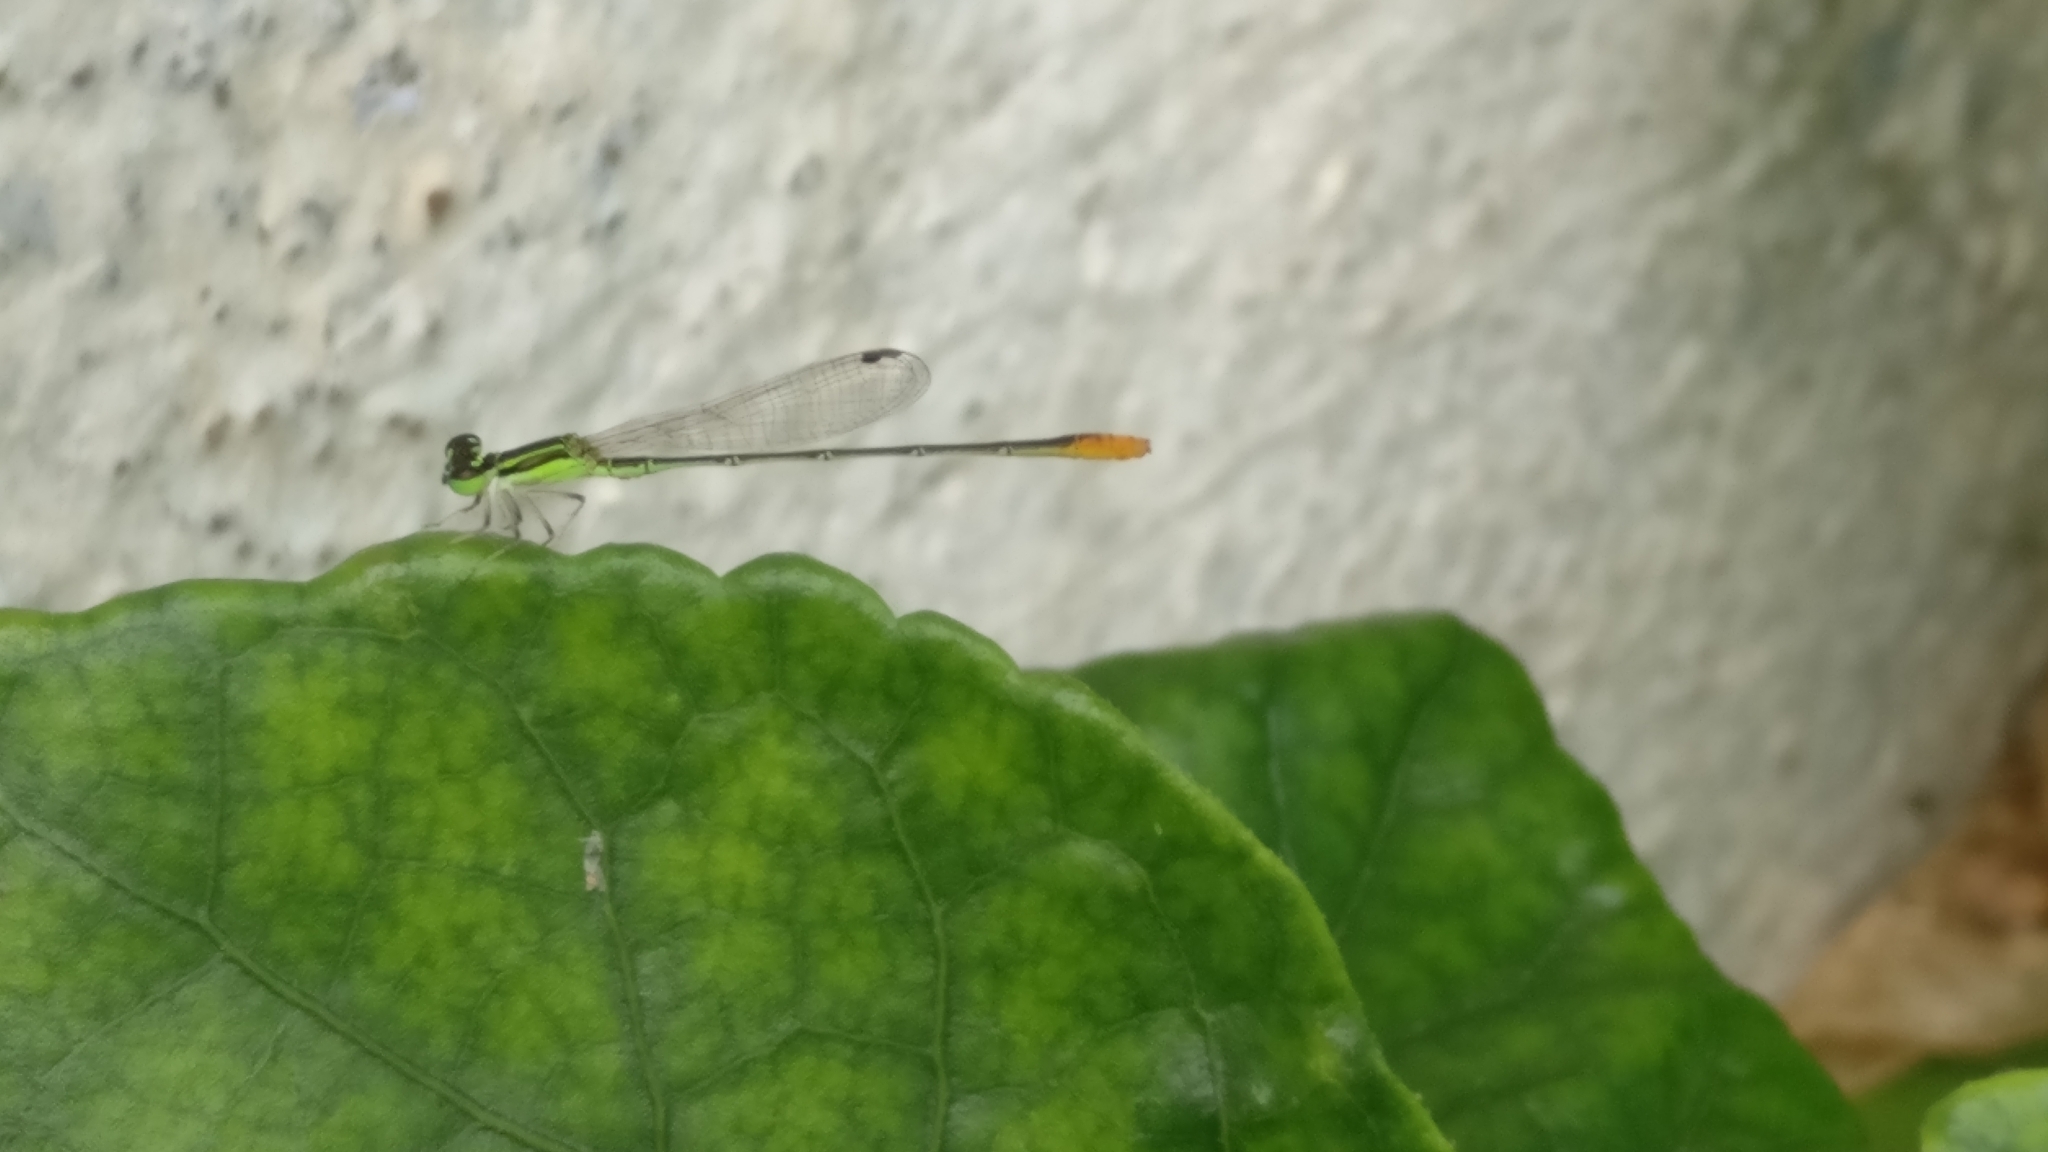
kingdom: Animalia
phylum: Arthropoda
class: Insecta
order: Odonata
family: Coenagrionidae
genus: Agriocnemis
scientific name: Agriocnemis pygmaea
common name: Pygmy wisp
